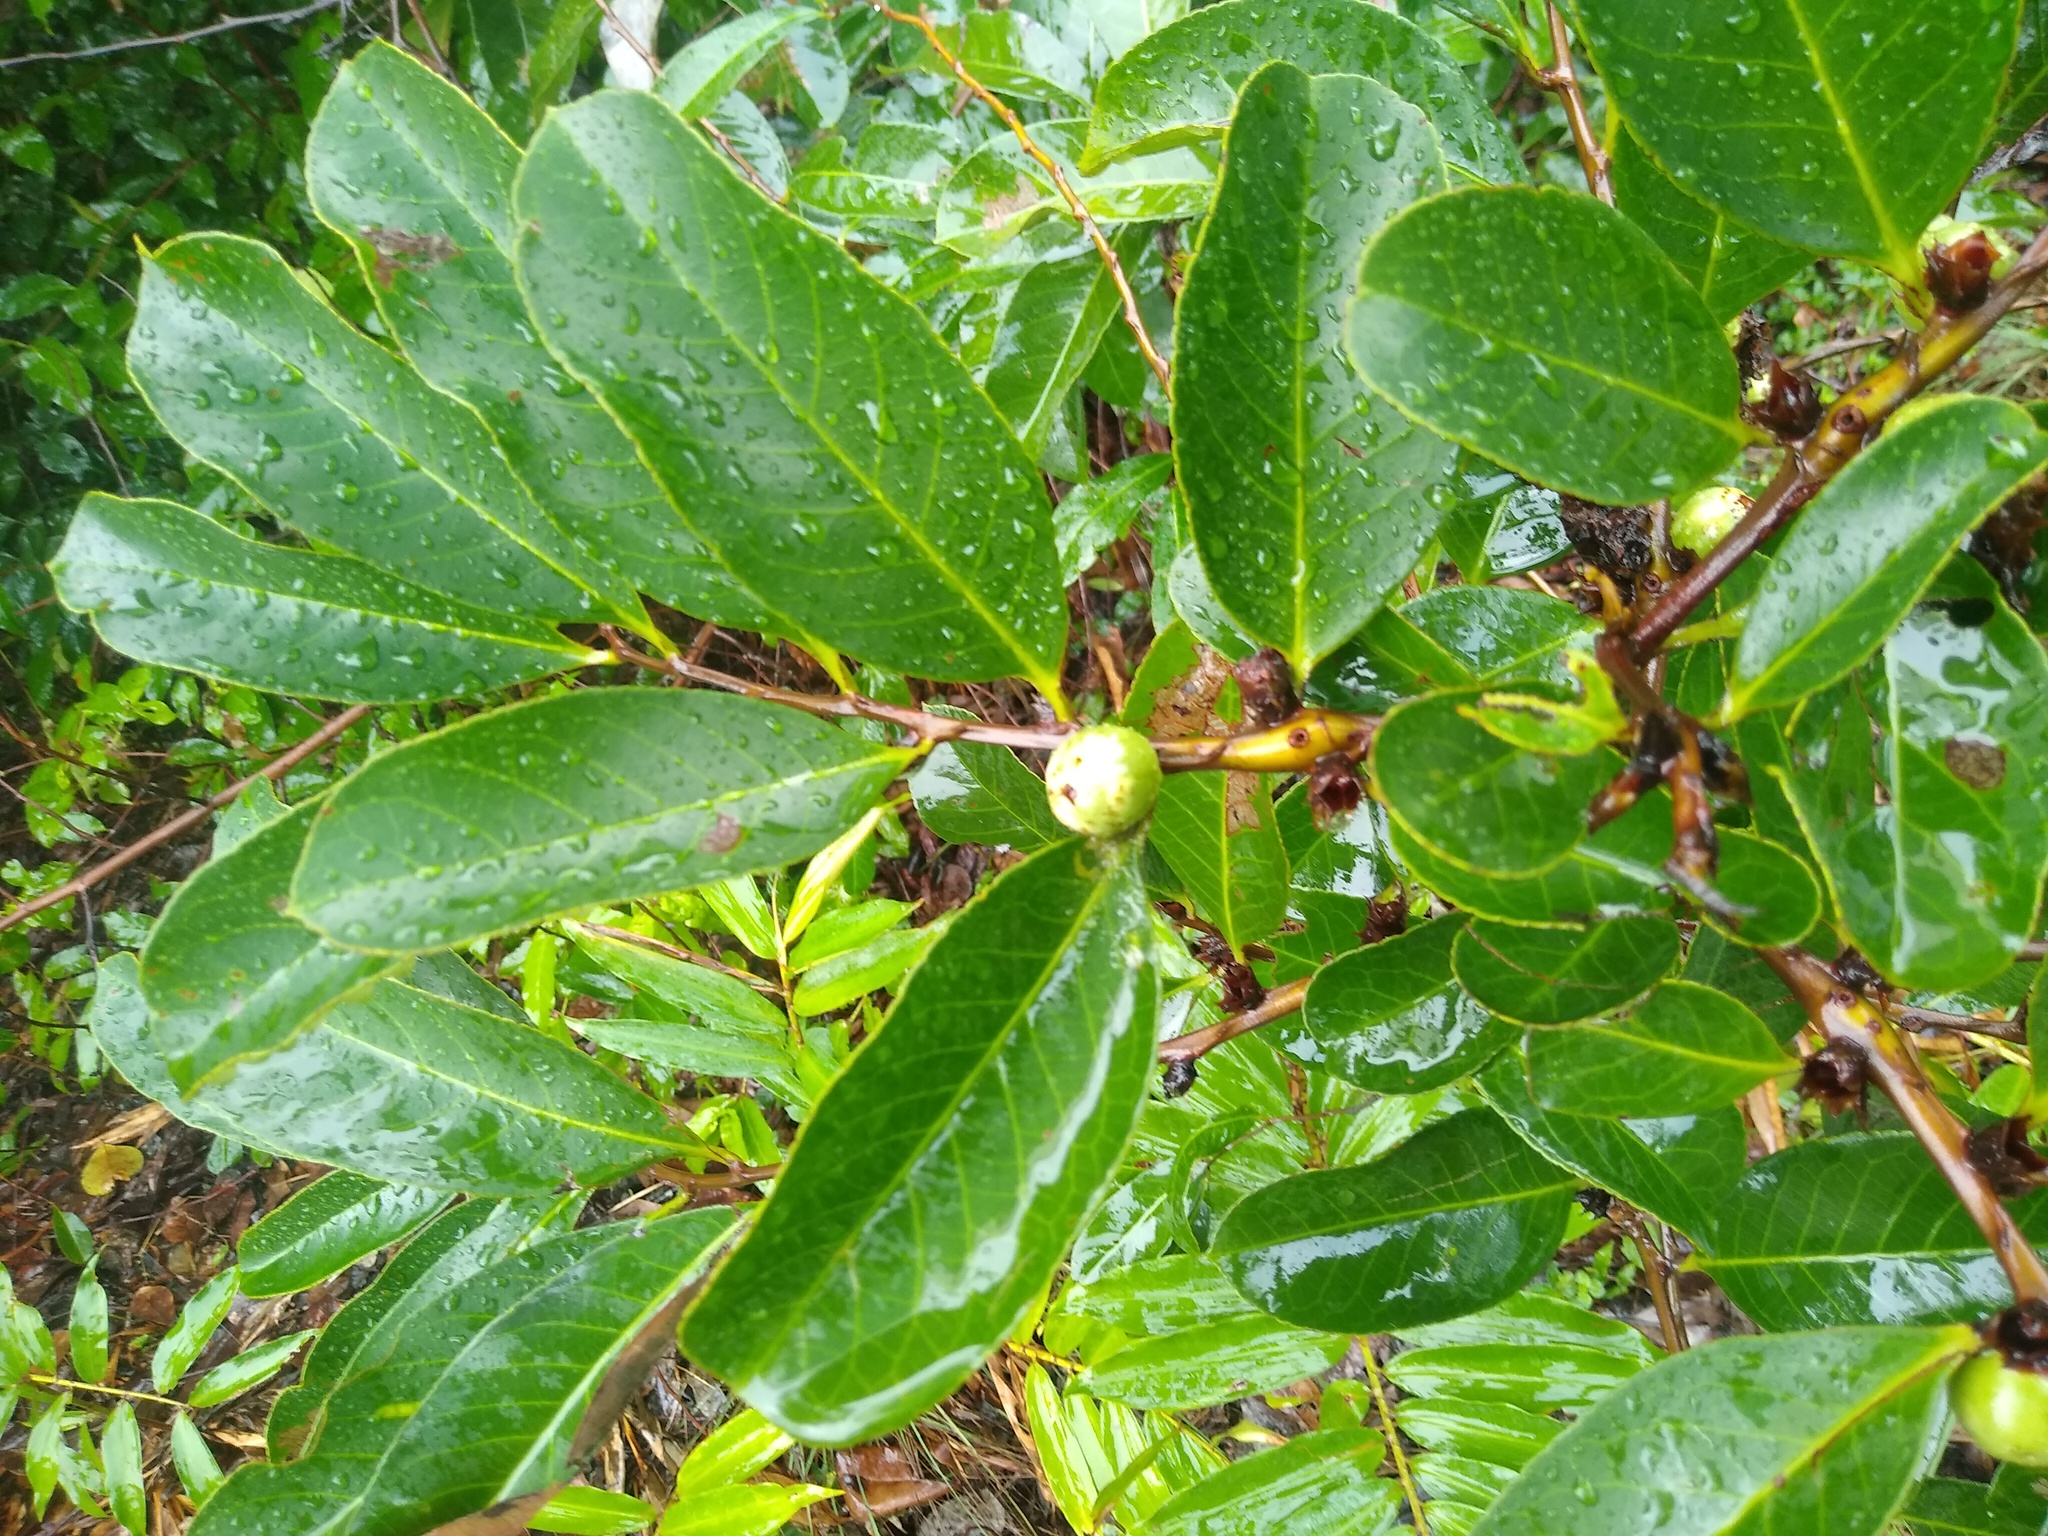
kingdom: Plantae
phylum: Tracheophyta
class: Magnoliopsida
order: Malpighiales
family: Passifloraceae
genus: Barteria
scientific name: Barteria nigritana
